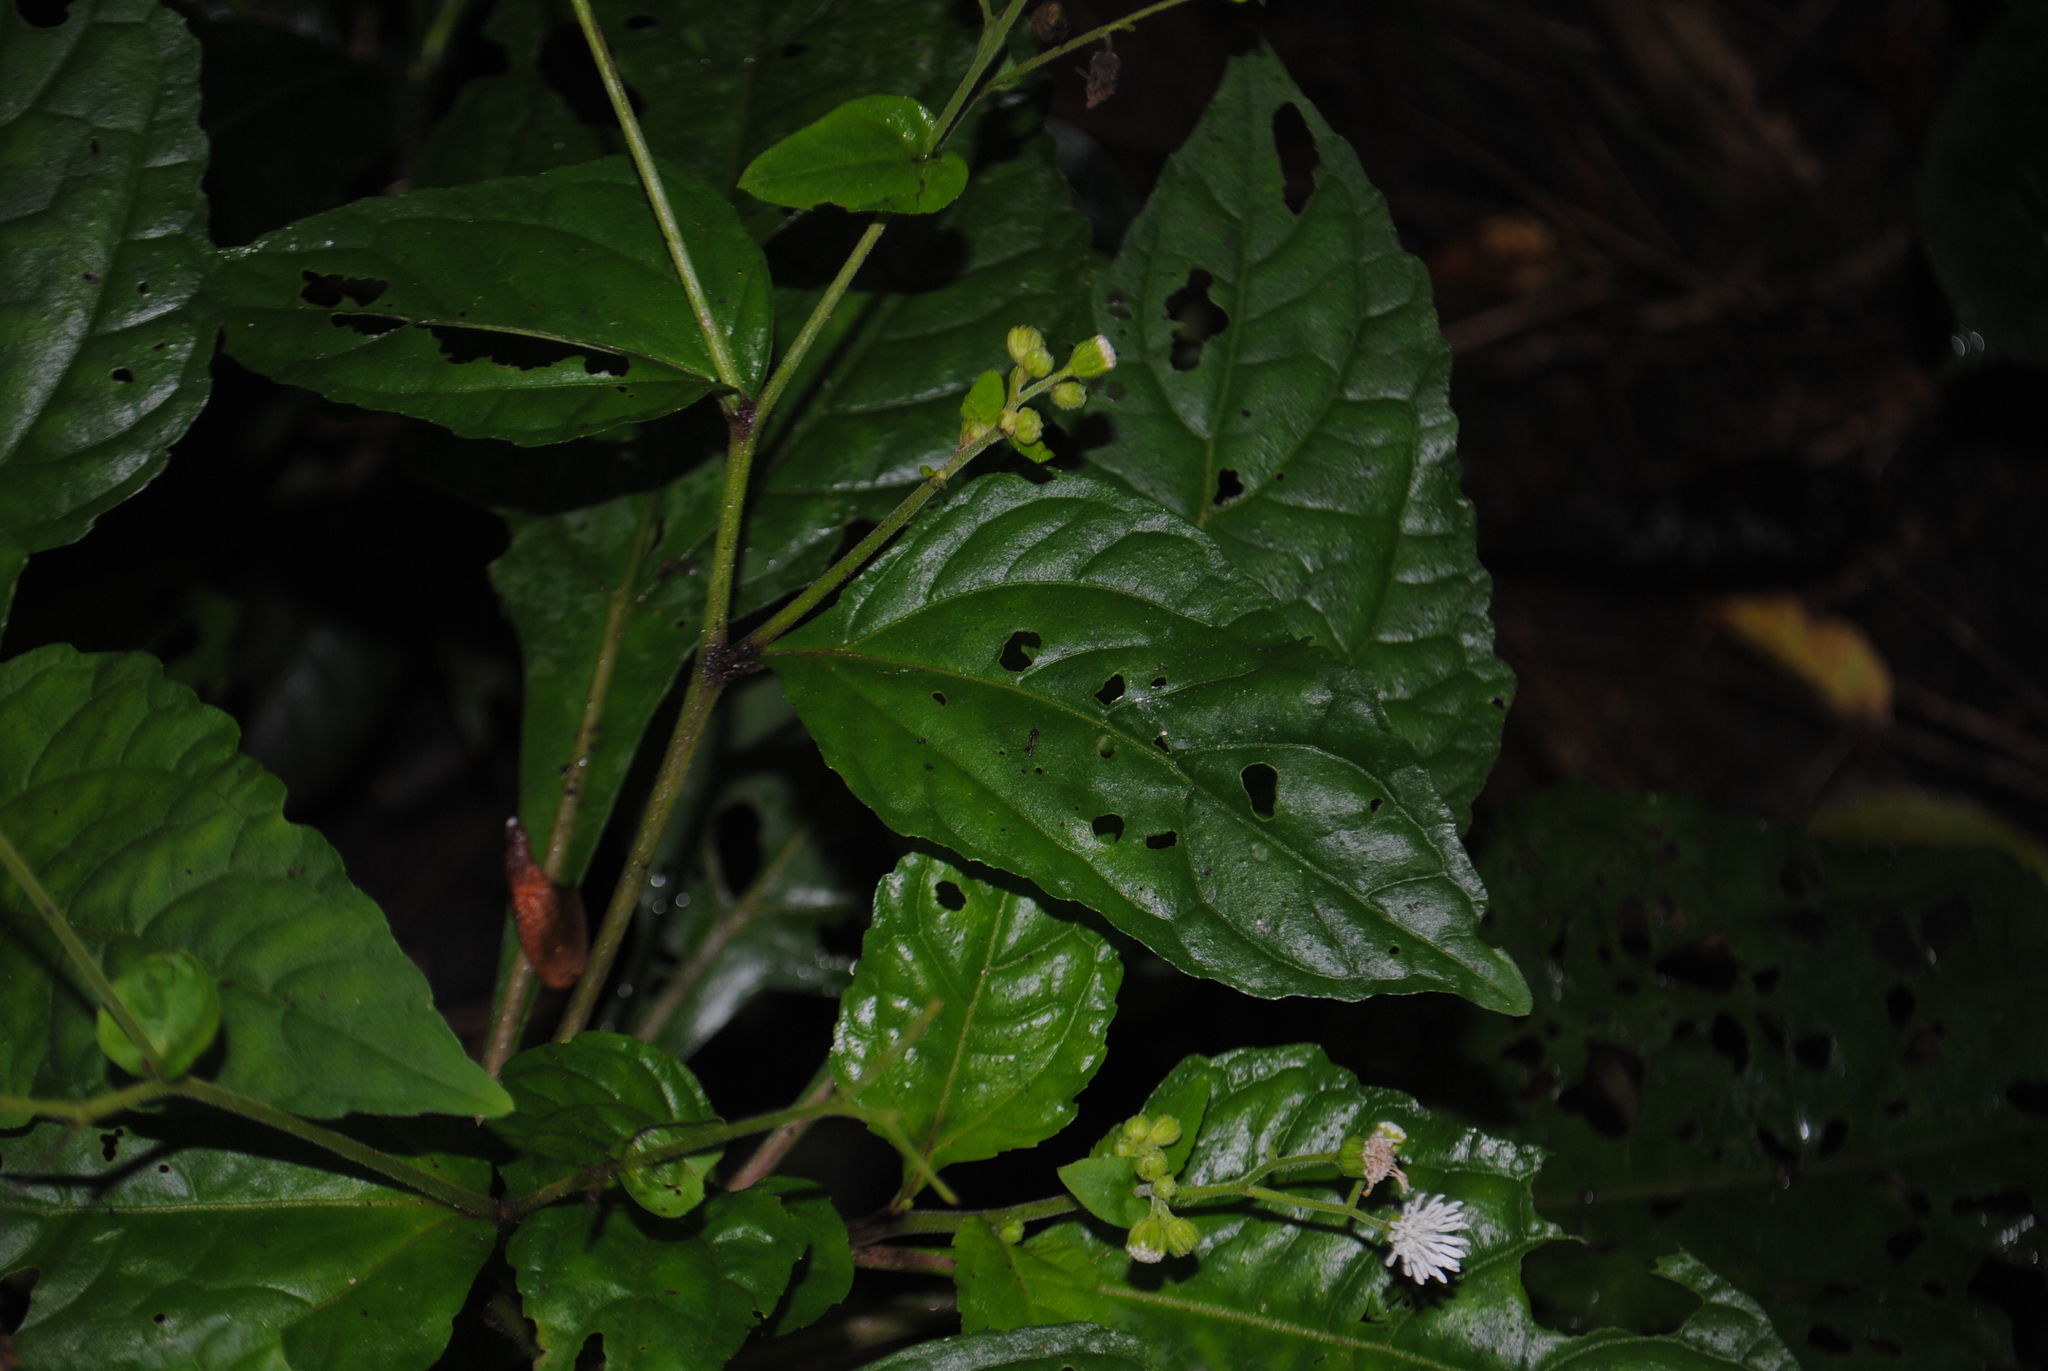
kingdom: Plantae
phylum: Tracheophyta
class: Magnoliopsida
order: Asterales
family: Asteraceae
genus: Adenostemma
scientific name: Adenostemma platyphyllum
